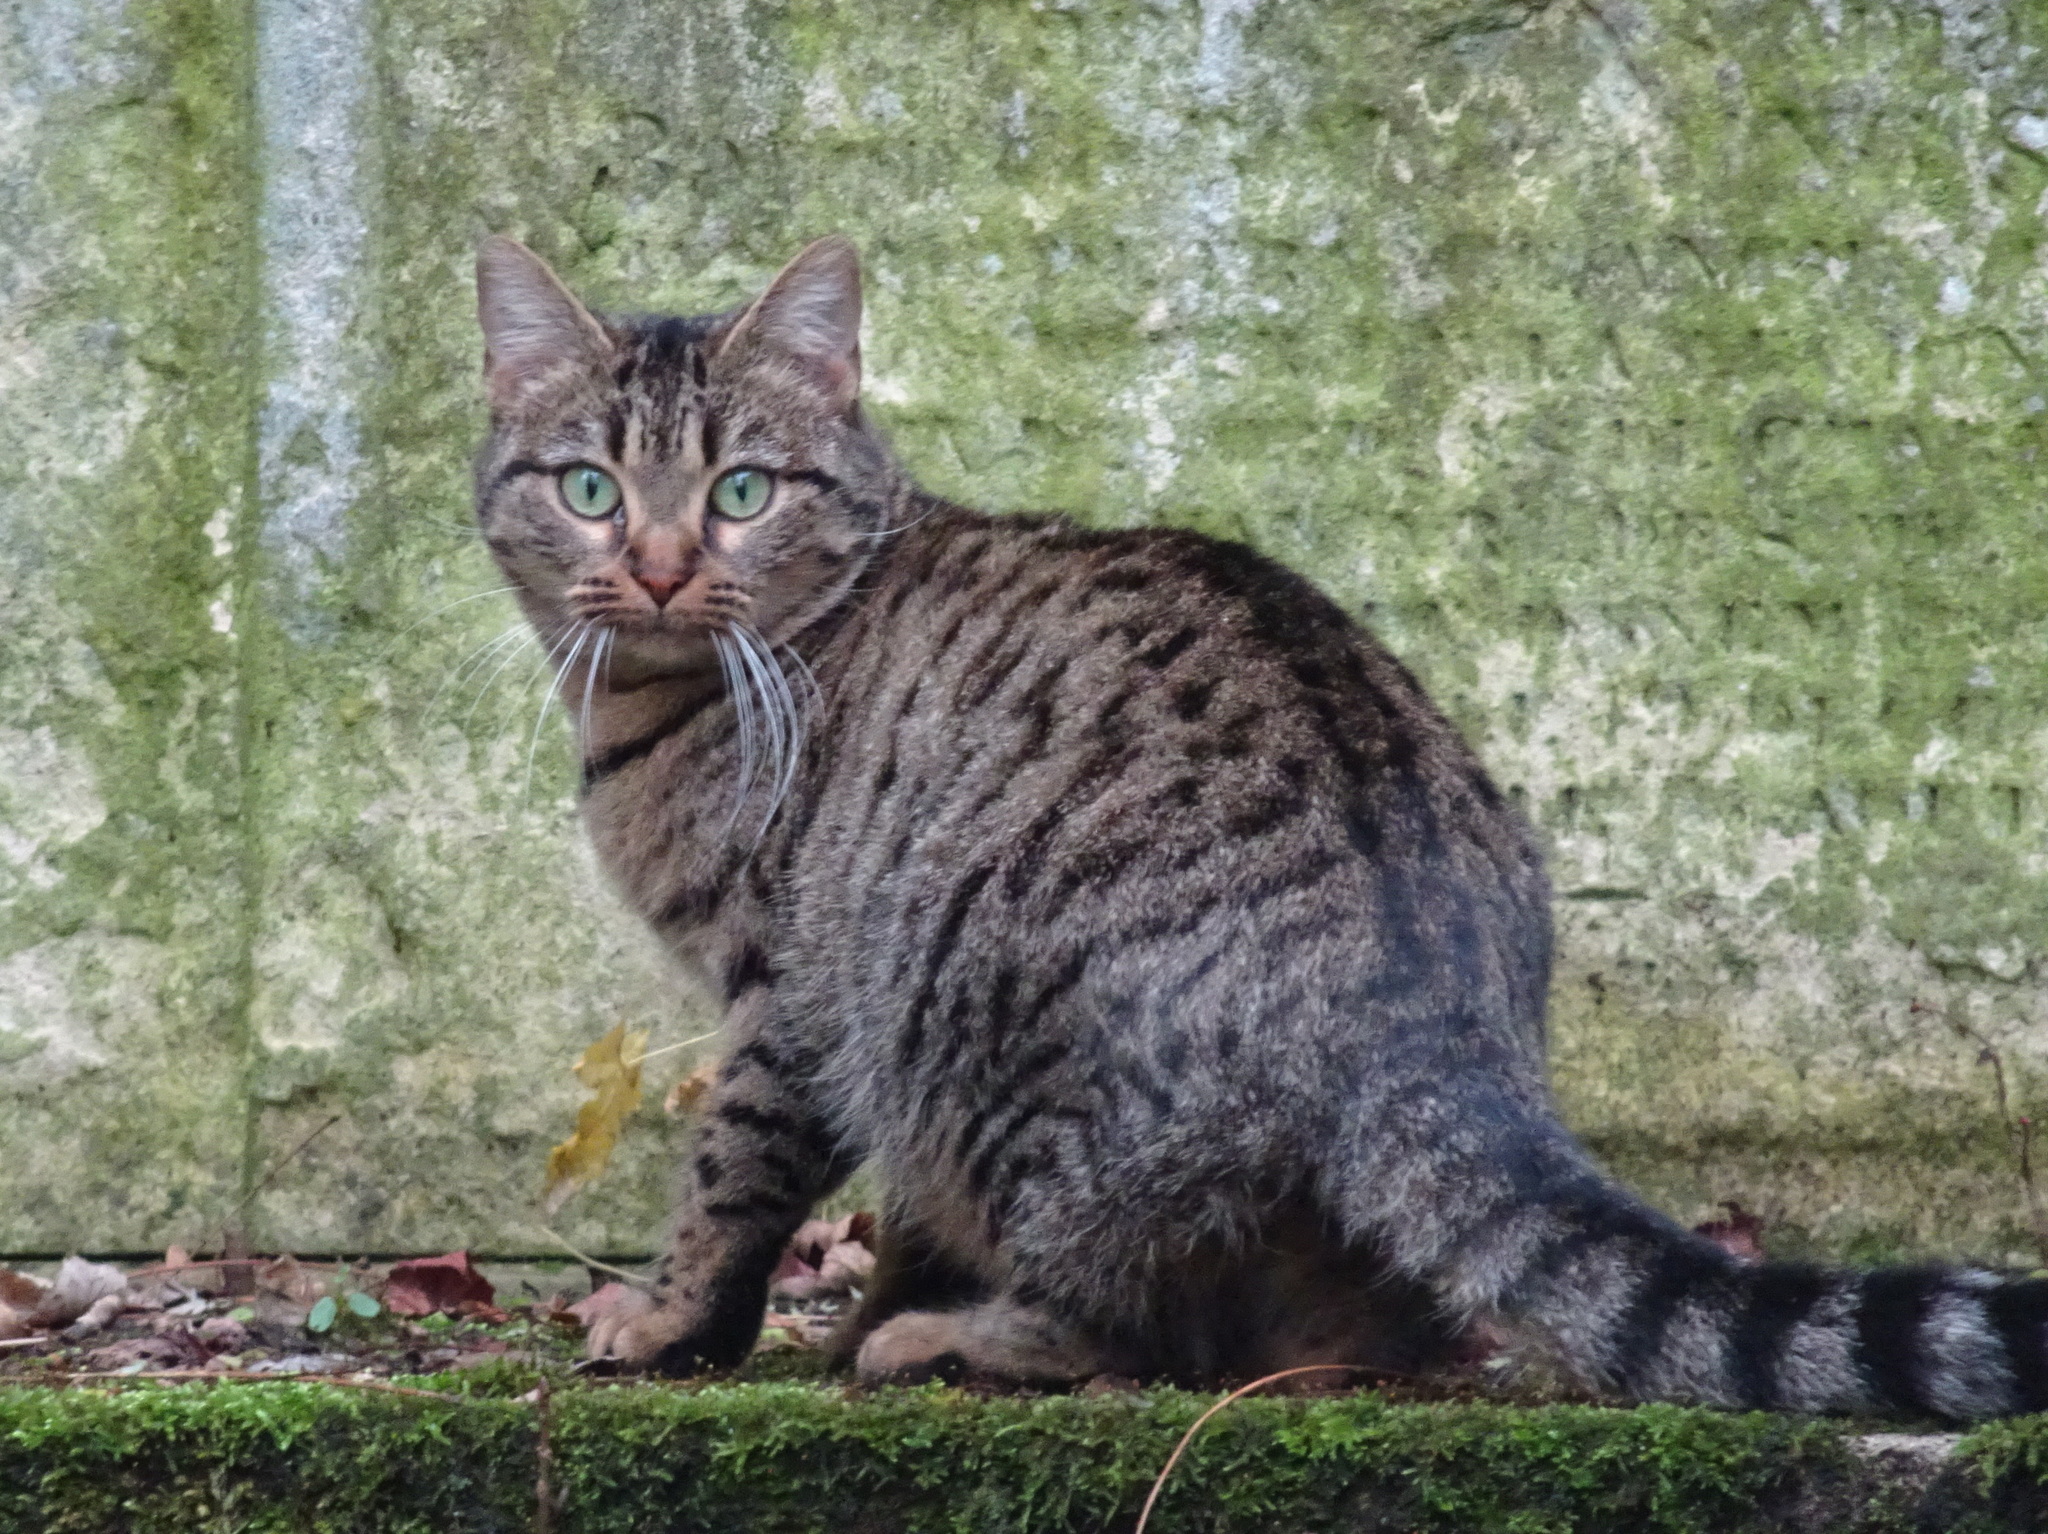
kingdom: Animalia
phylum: Chordata
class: Mammalia
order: Carnivora
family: Felidae
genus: Felis
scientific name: Felis catus
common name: Domestic cat
